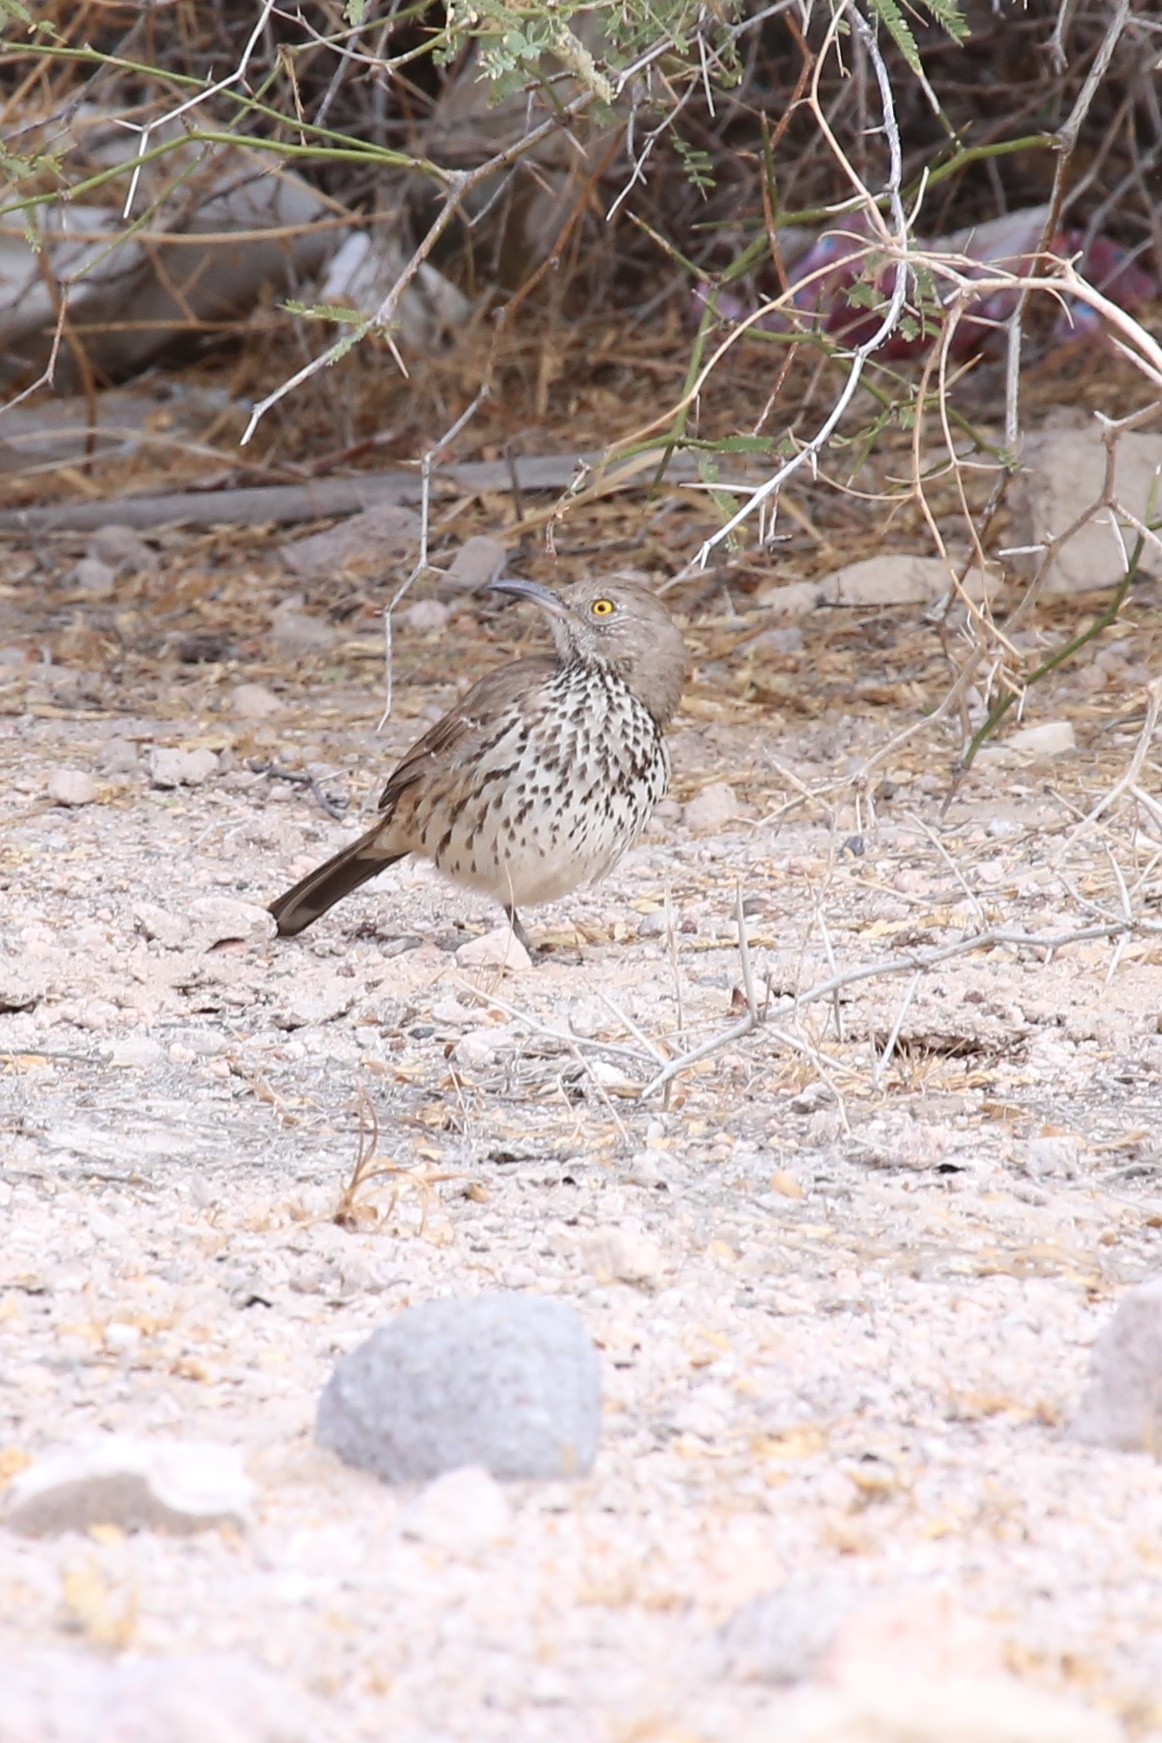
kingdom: Animalia
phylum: Chordata
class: Aves
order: Passeriformes
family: Mimidae
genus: Toxostoma
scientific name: Toxostoma cinereum
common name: Gray thrasher
